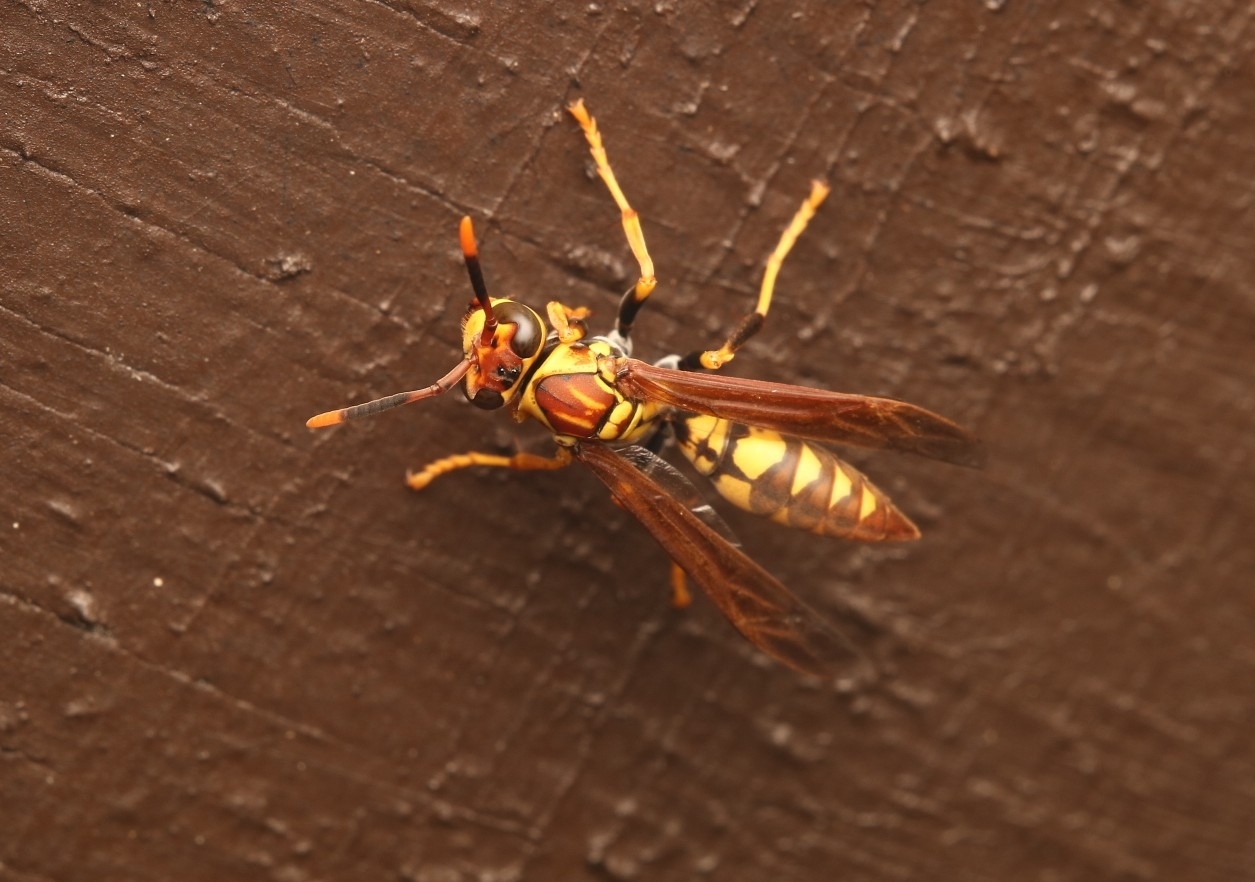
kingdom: Animalia
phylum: Arthropoda
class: Insecta
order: Hymenoptera
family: Eumenidae
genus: Polistes
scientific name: Polistes myersi
